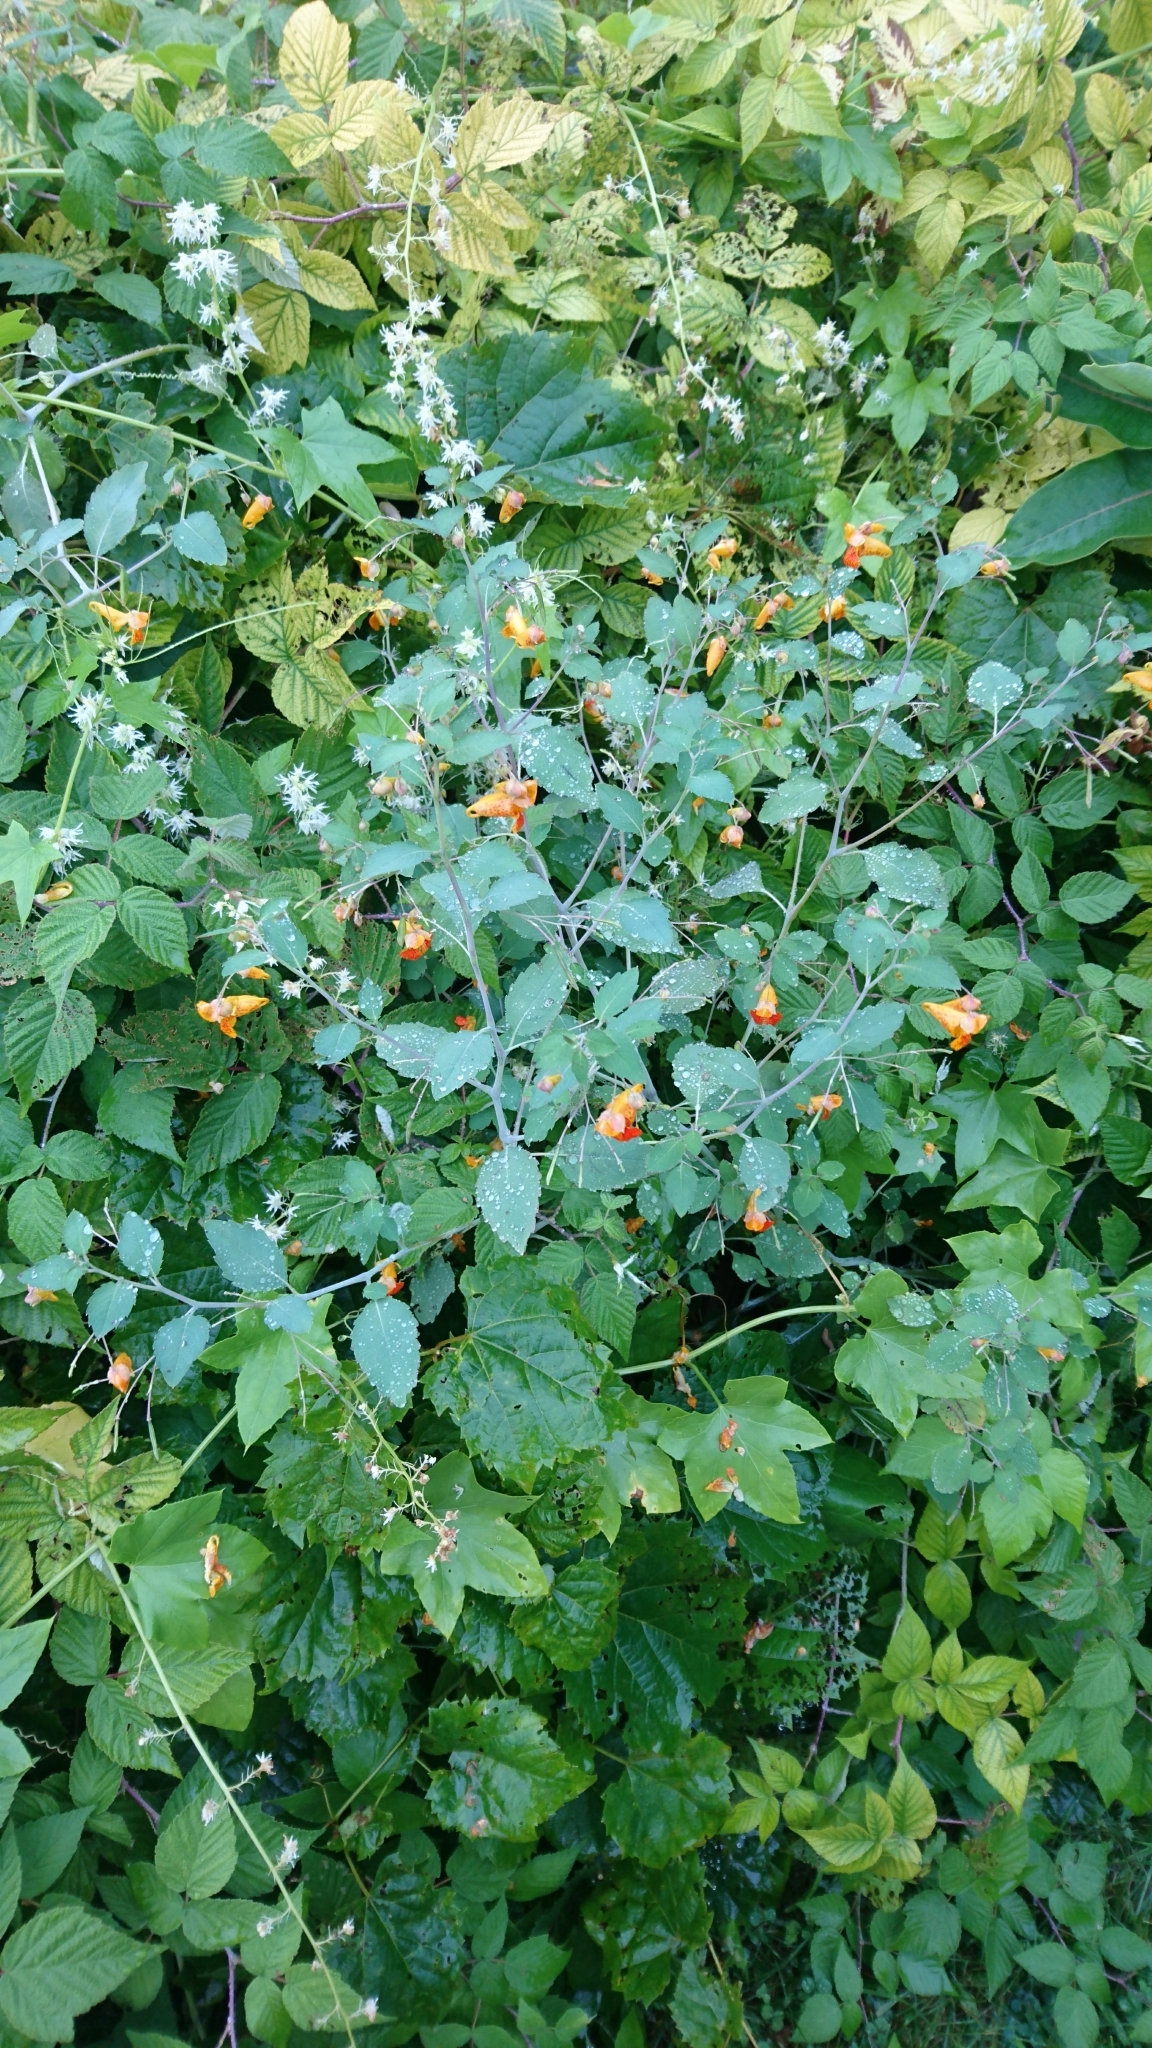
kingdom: Plantae
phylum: Tracheophyta
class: Magnoliopsida
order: Ericales
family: Balsaminaceae
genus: Impatiens
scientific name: Impatiens capensis
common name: Orange balsam
